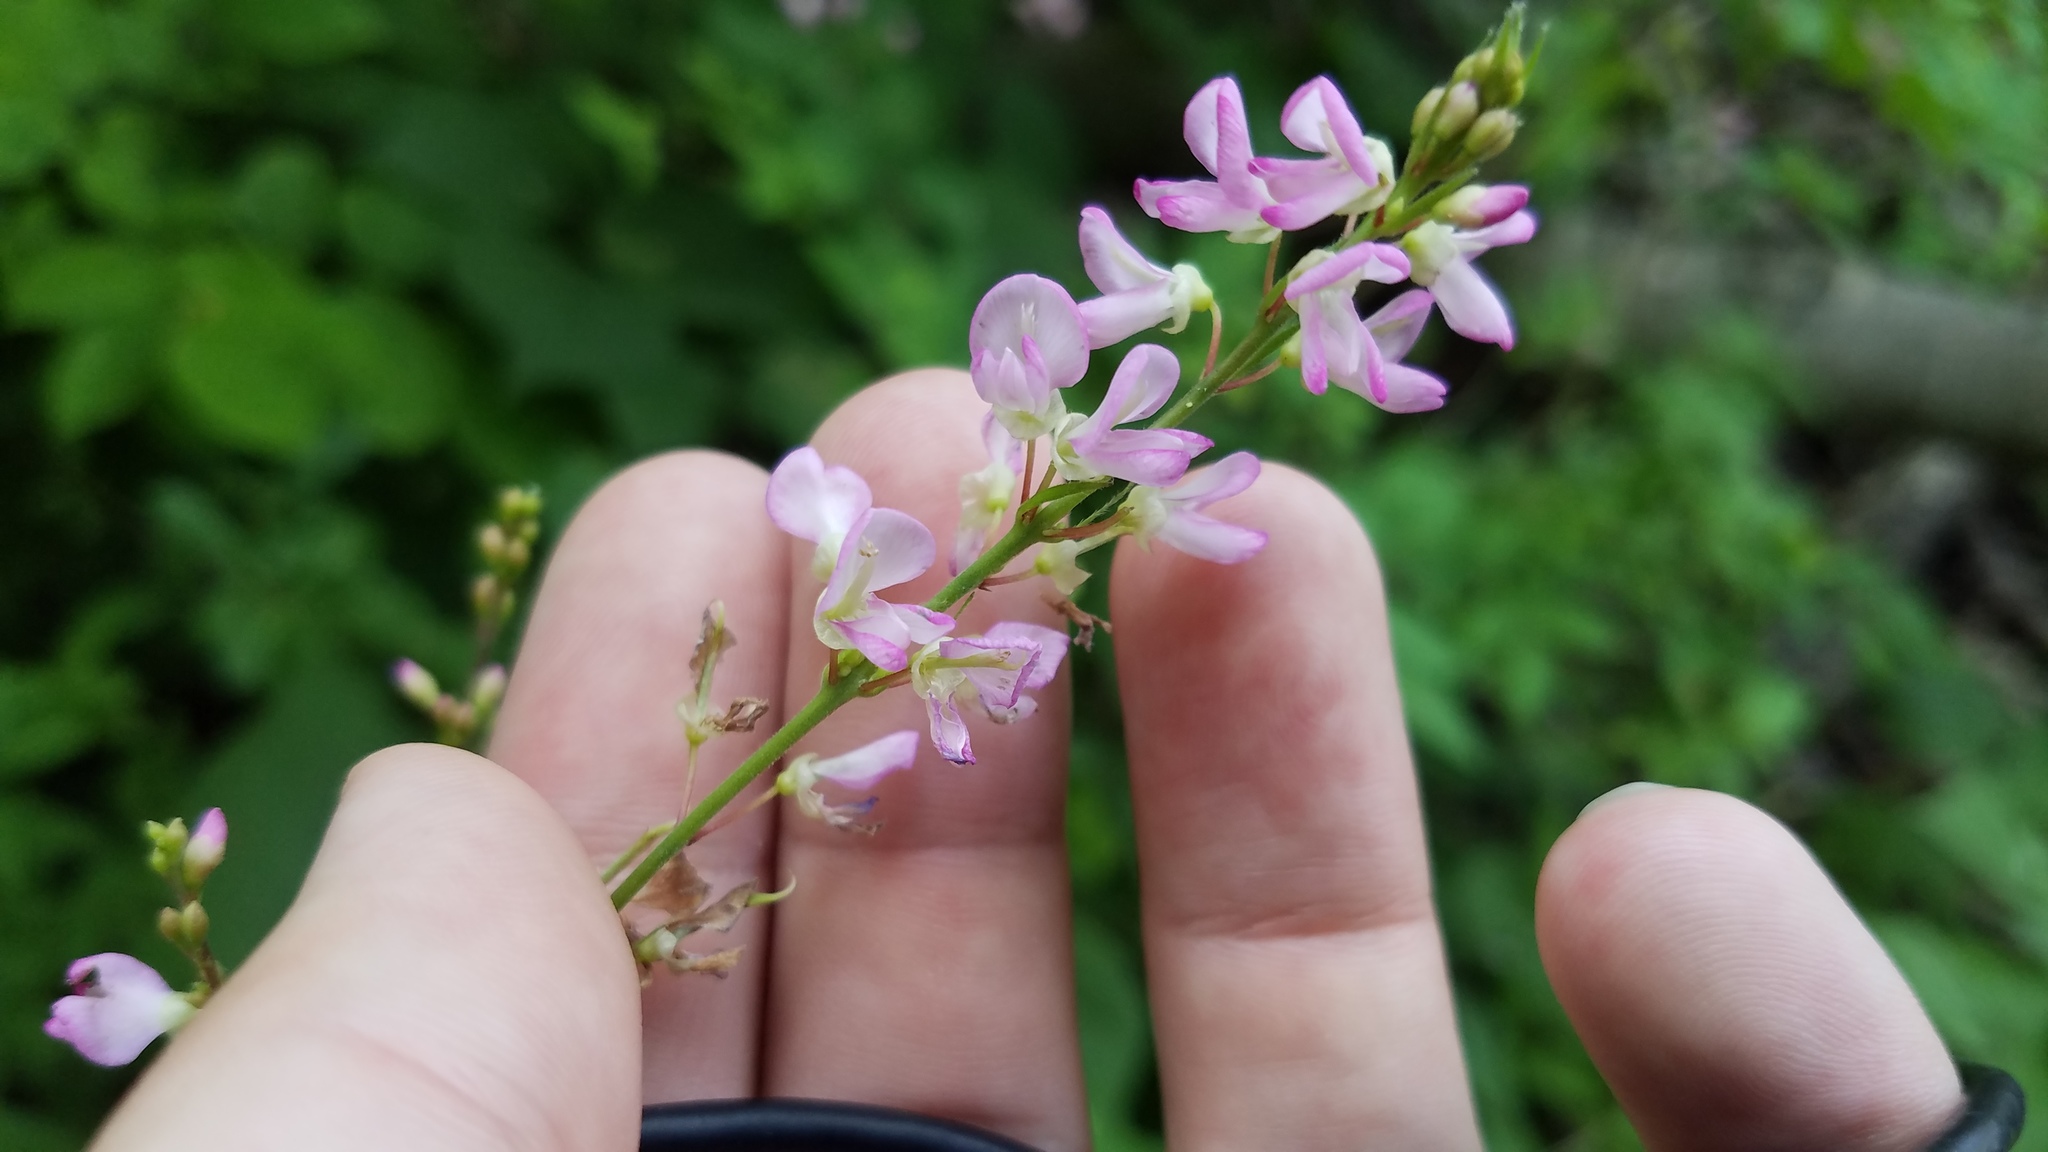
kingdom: Plantae
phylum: Tracheophyta
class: Magnoliopsida
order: Fabales
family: Fabaceae
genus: Hylodesmum
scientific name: Hylodesmum glutinosum
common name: Clustered-leaved tick-trefoil
